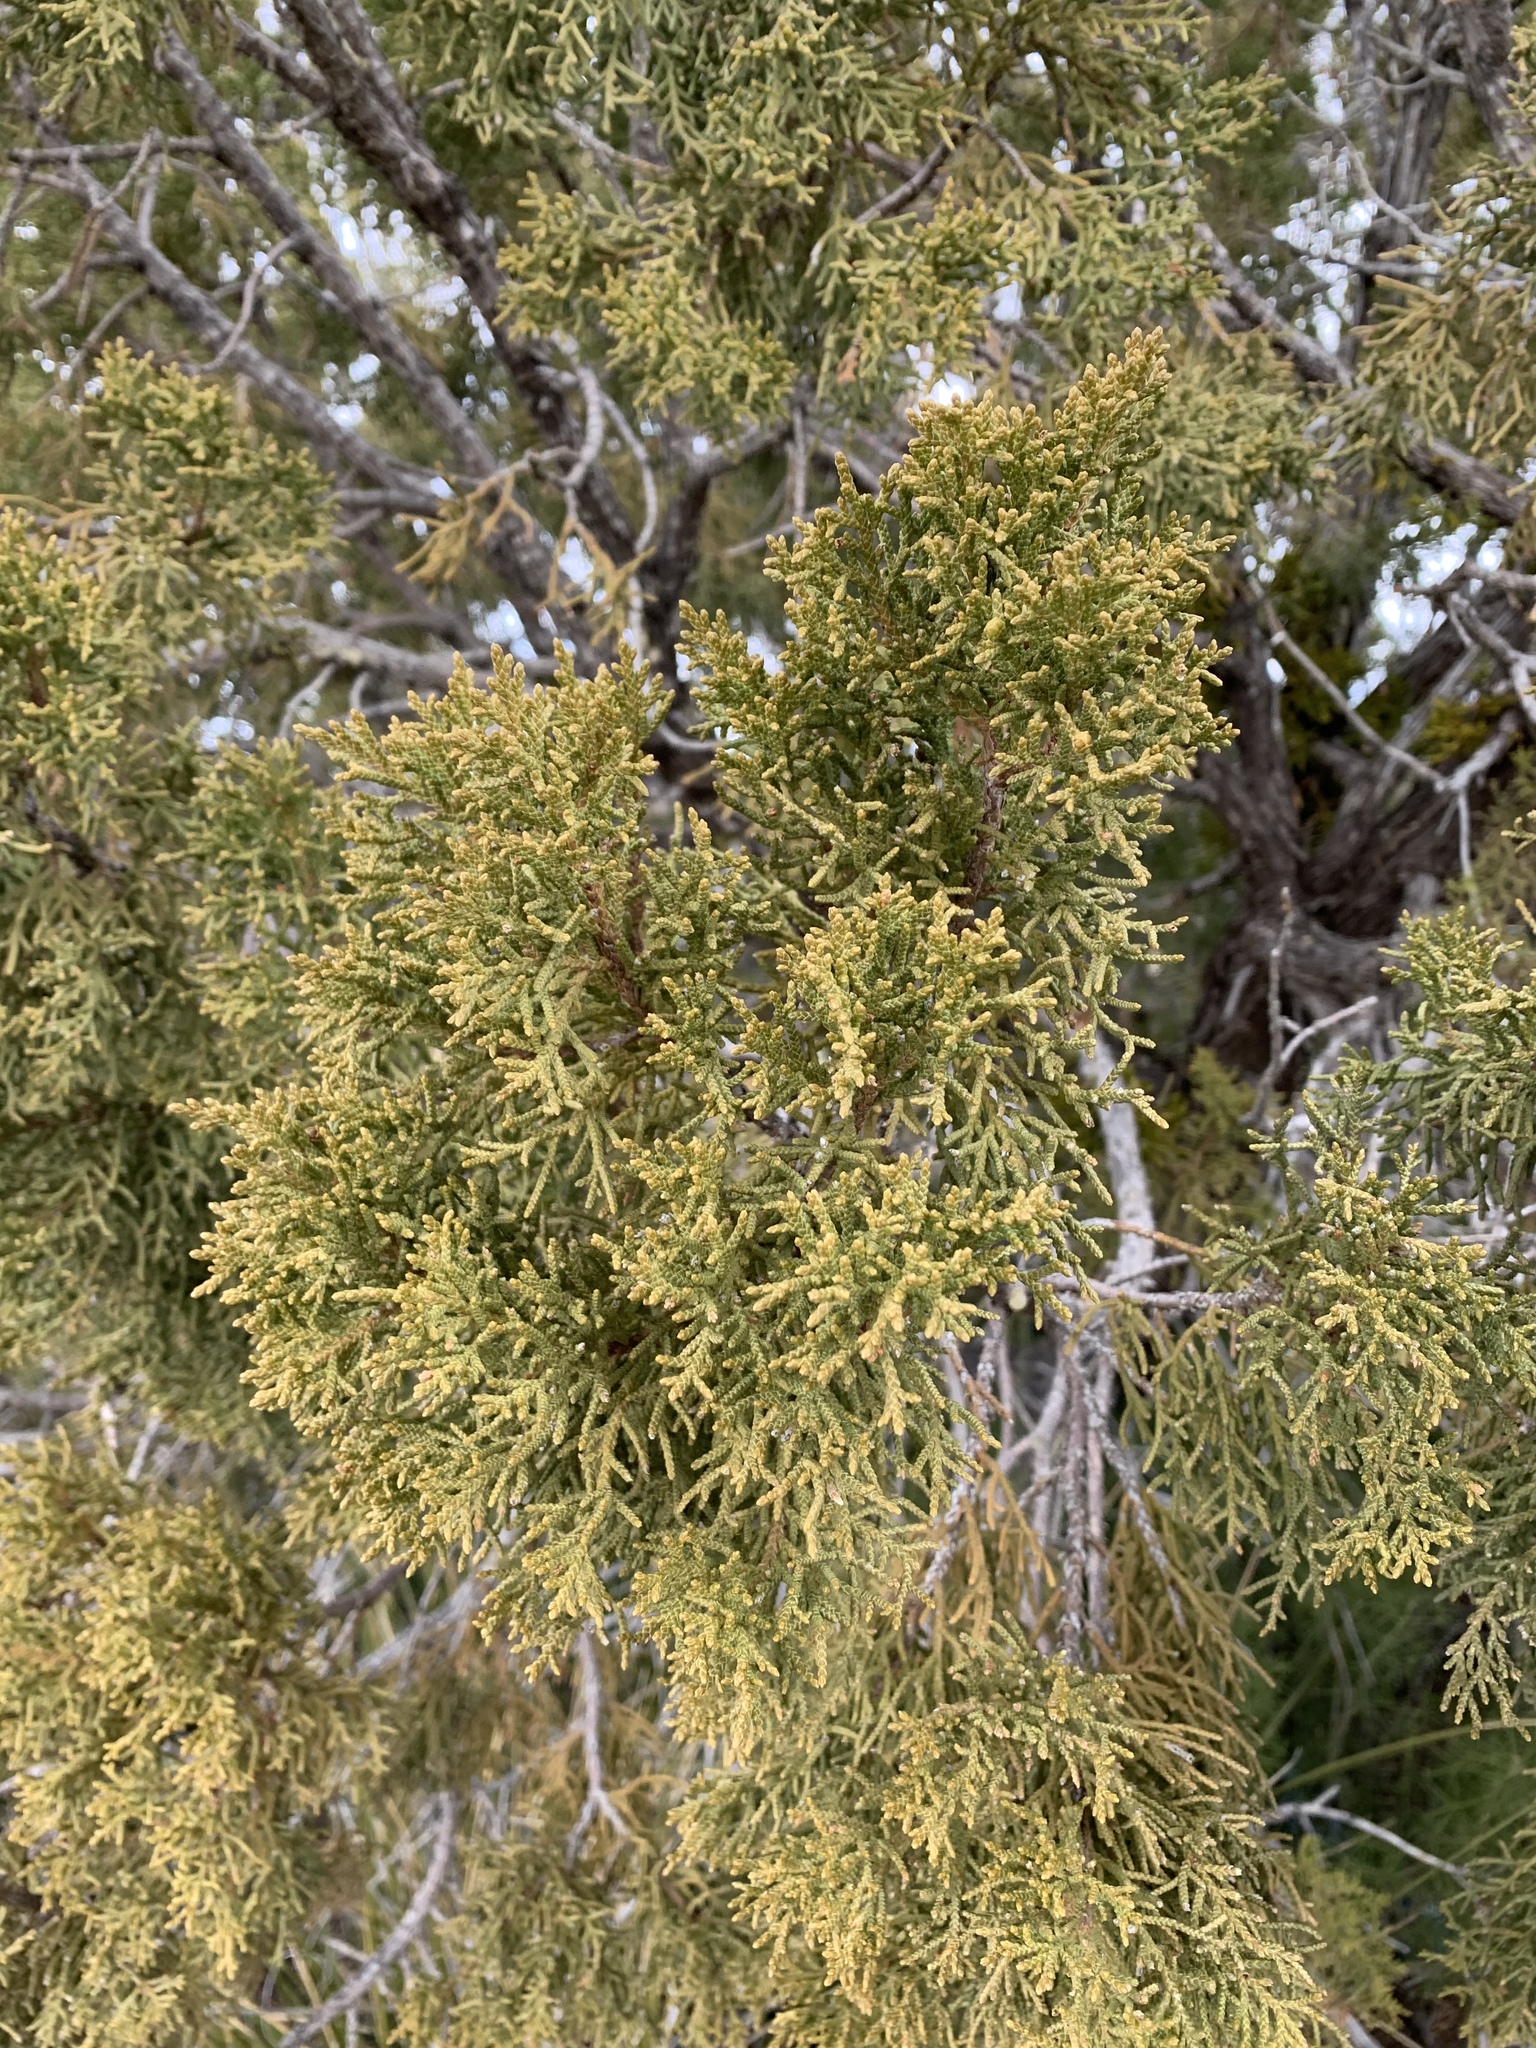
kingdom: Plantae
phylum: Tracheophyta
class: Pinopsida
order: Pinales
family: Cupressaceae
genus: Juniperus
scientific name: Juniperus monosperma
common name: One-seed juniper
